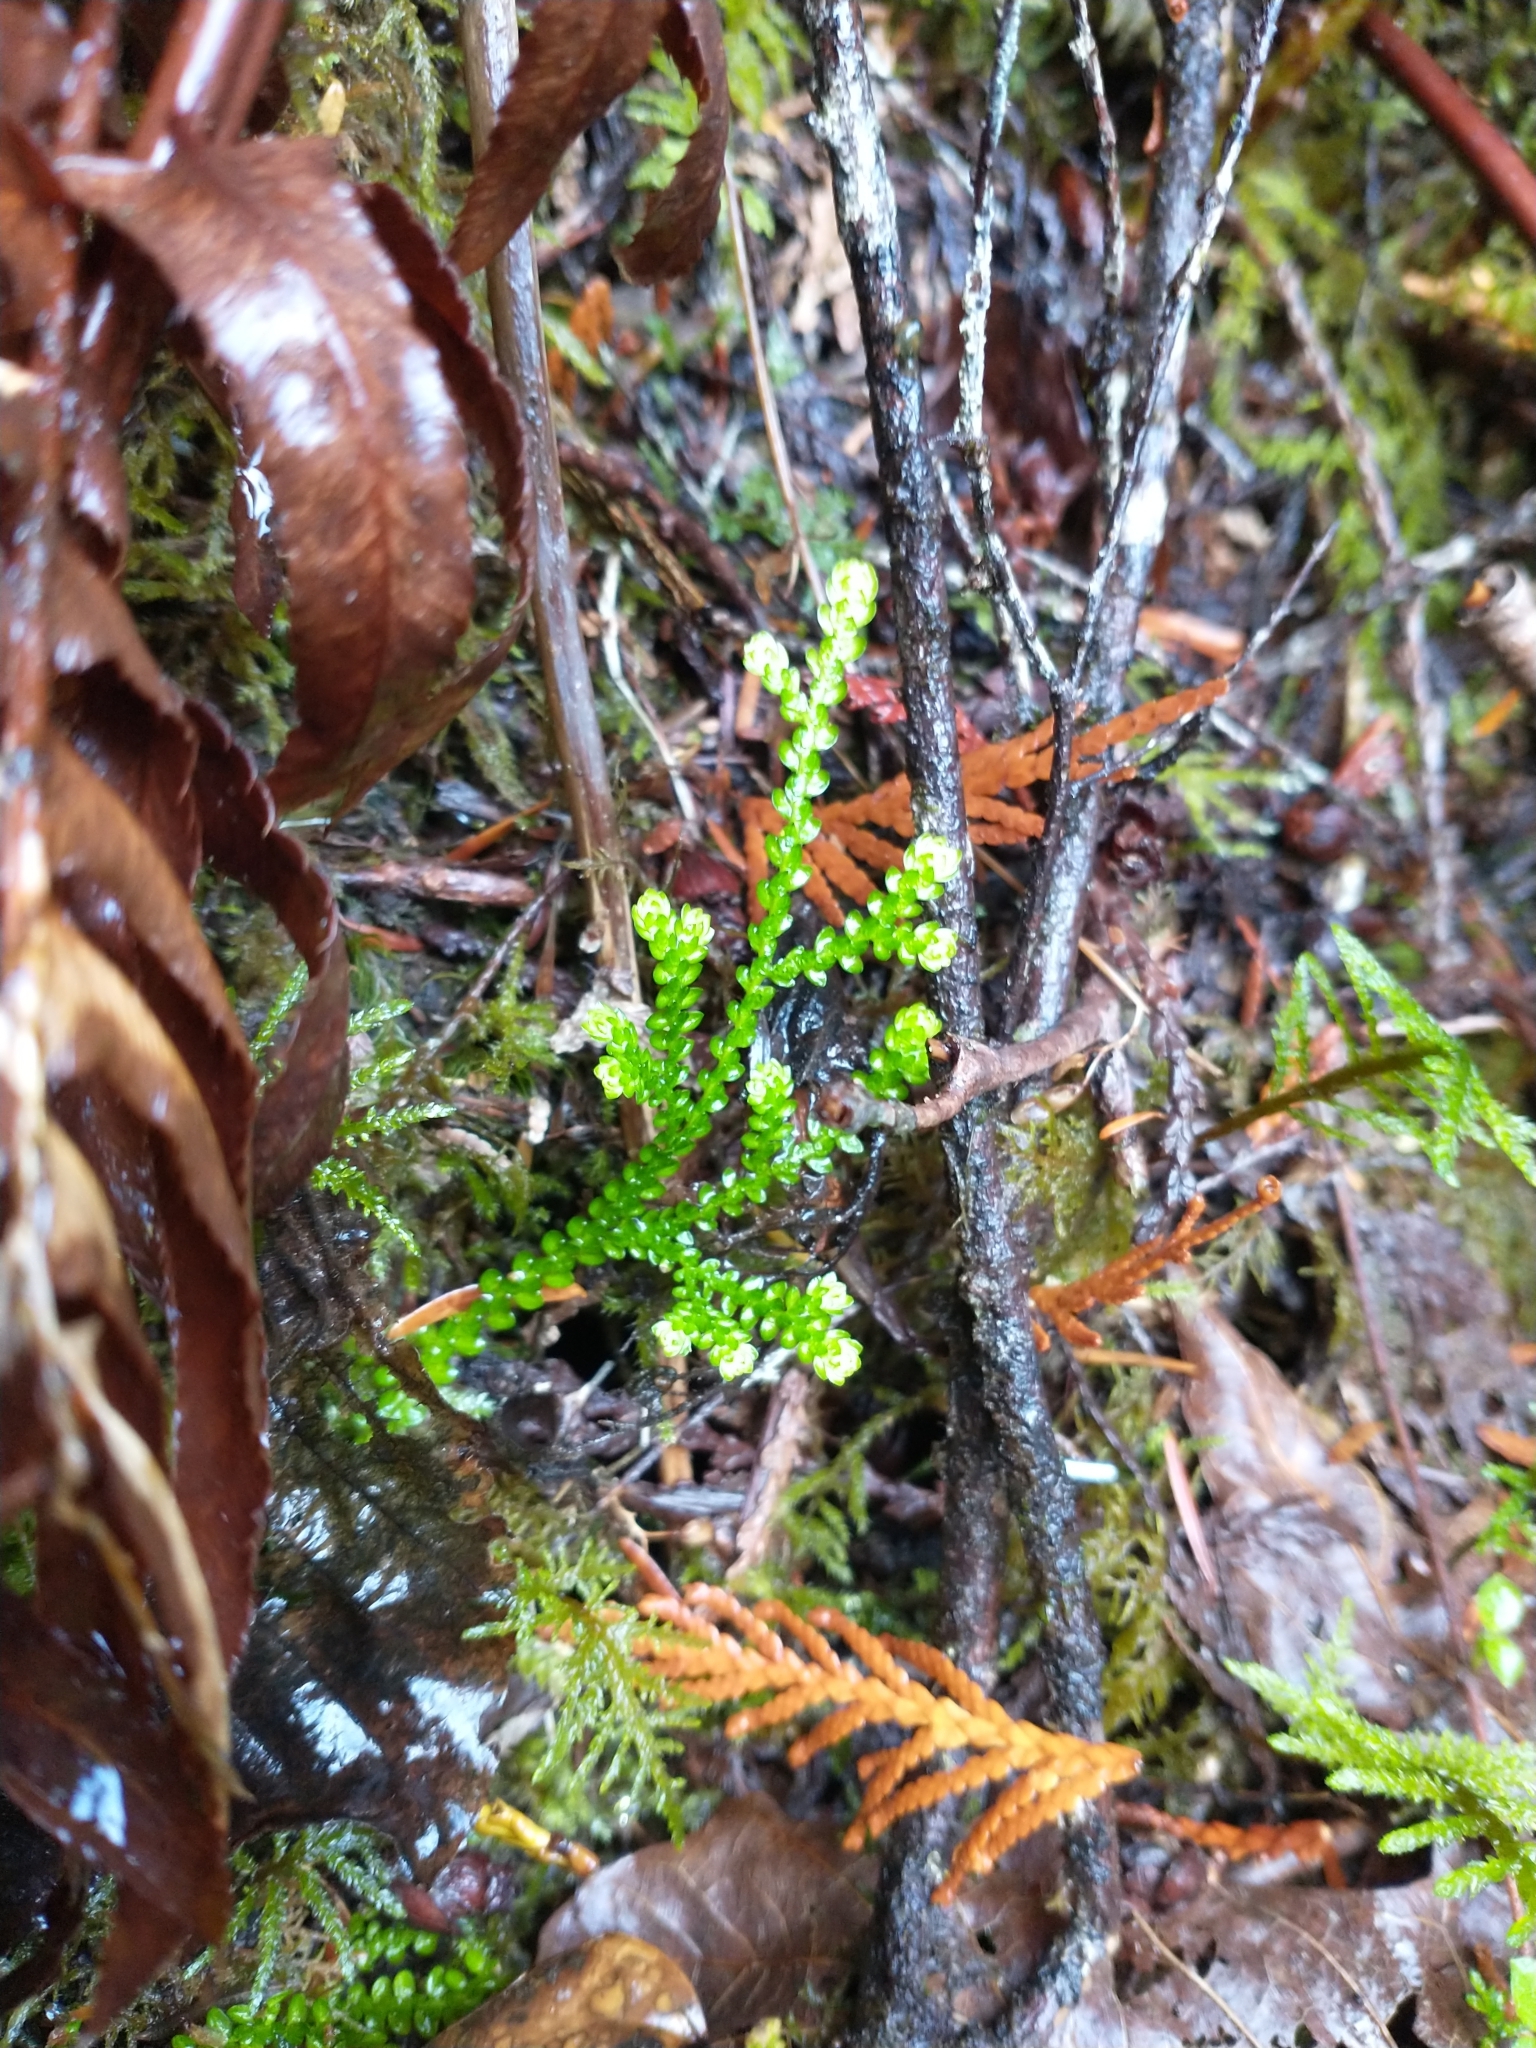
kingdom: Plantae
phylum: Tracheophyta
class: Lycopodiopsida
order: Selaginellales
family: Selaginellaceae
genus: Selaginella
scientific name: Selaginella douglasii
